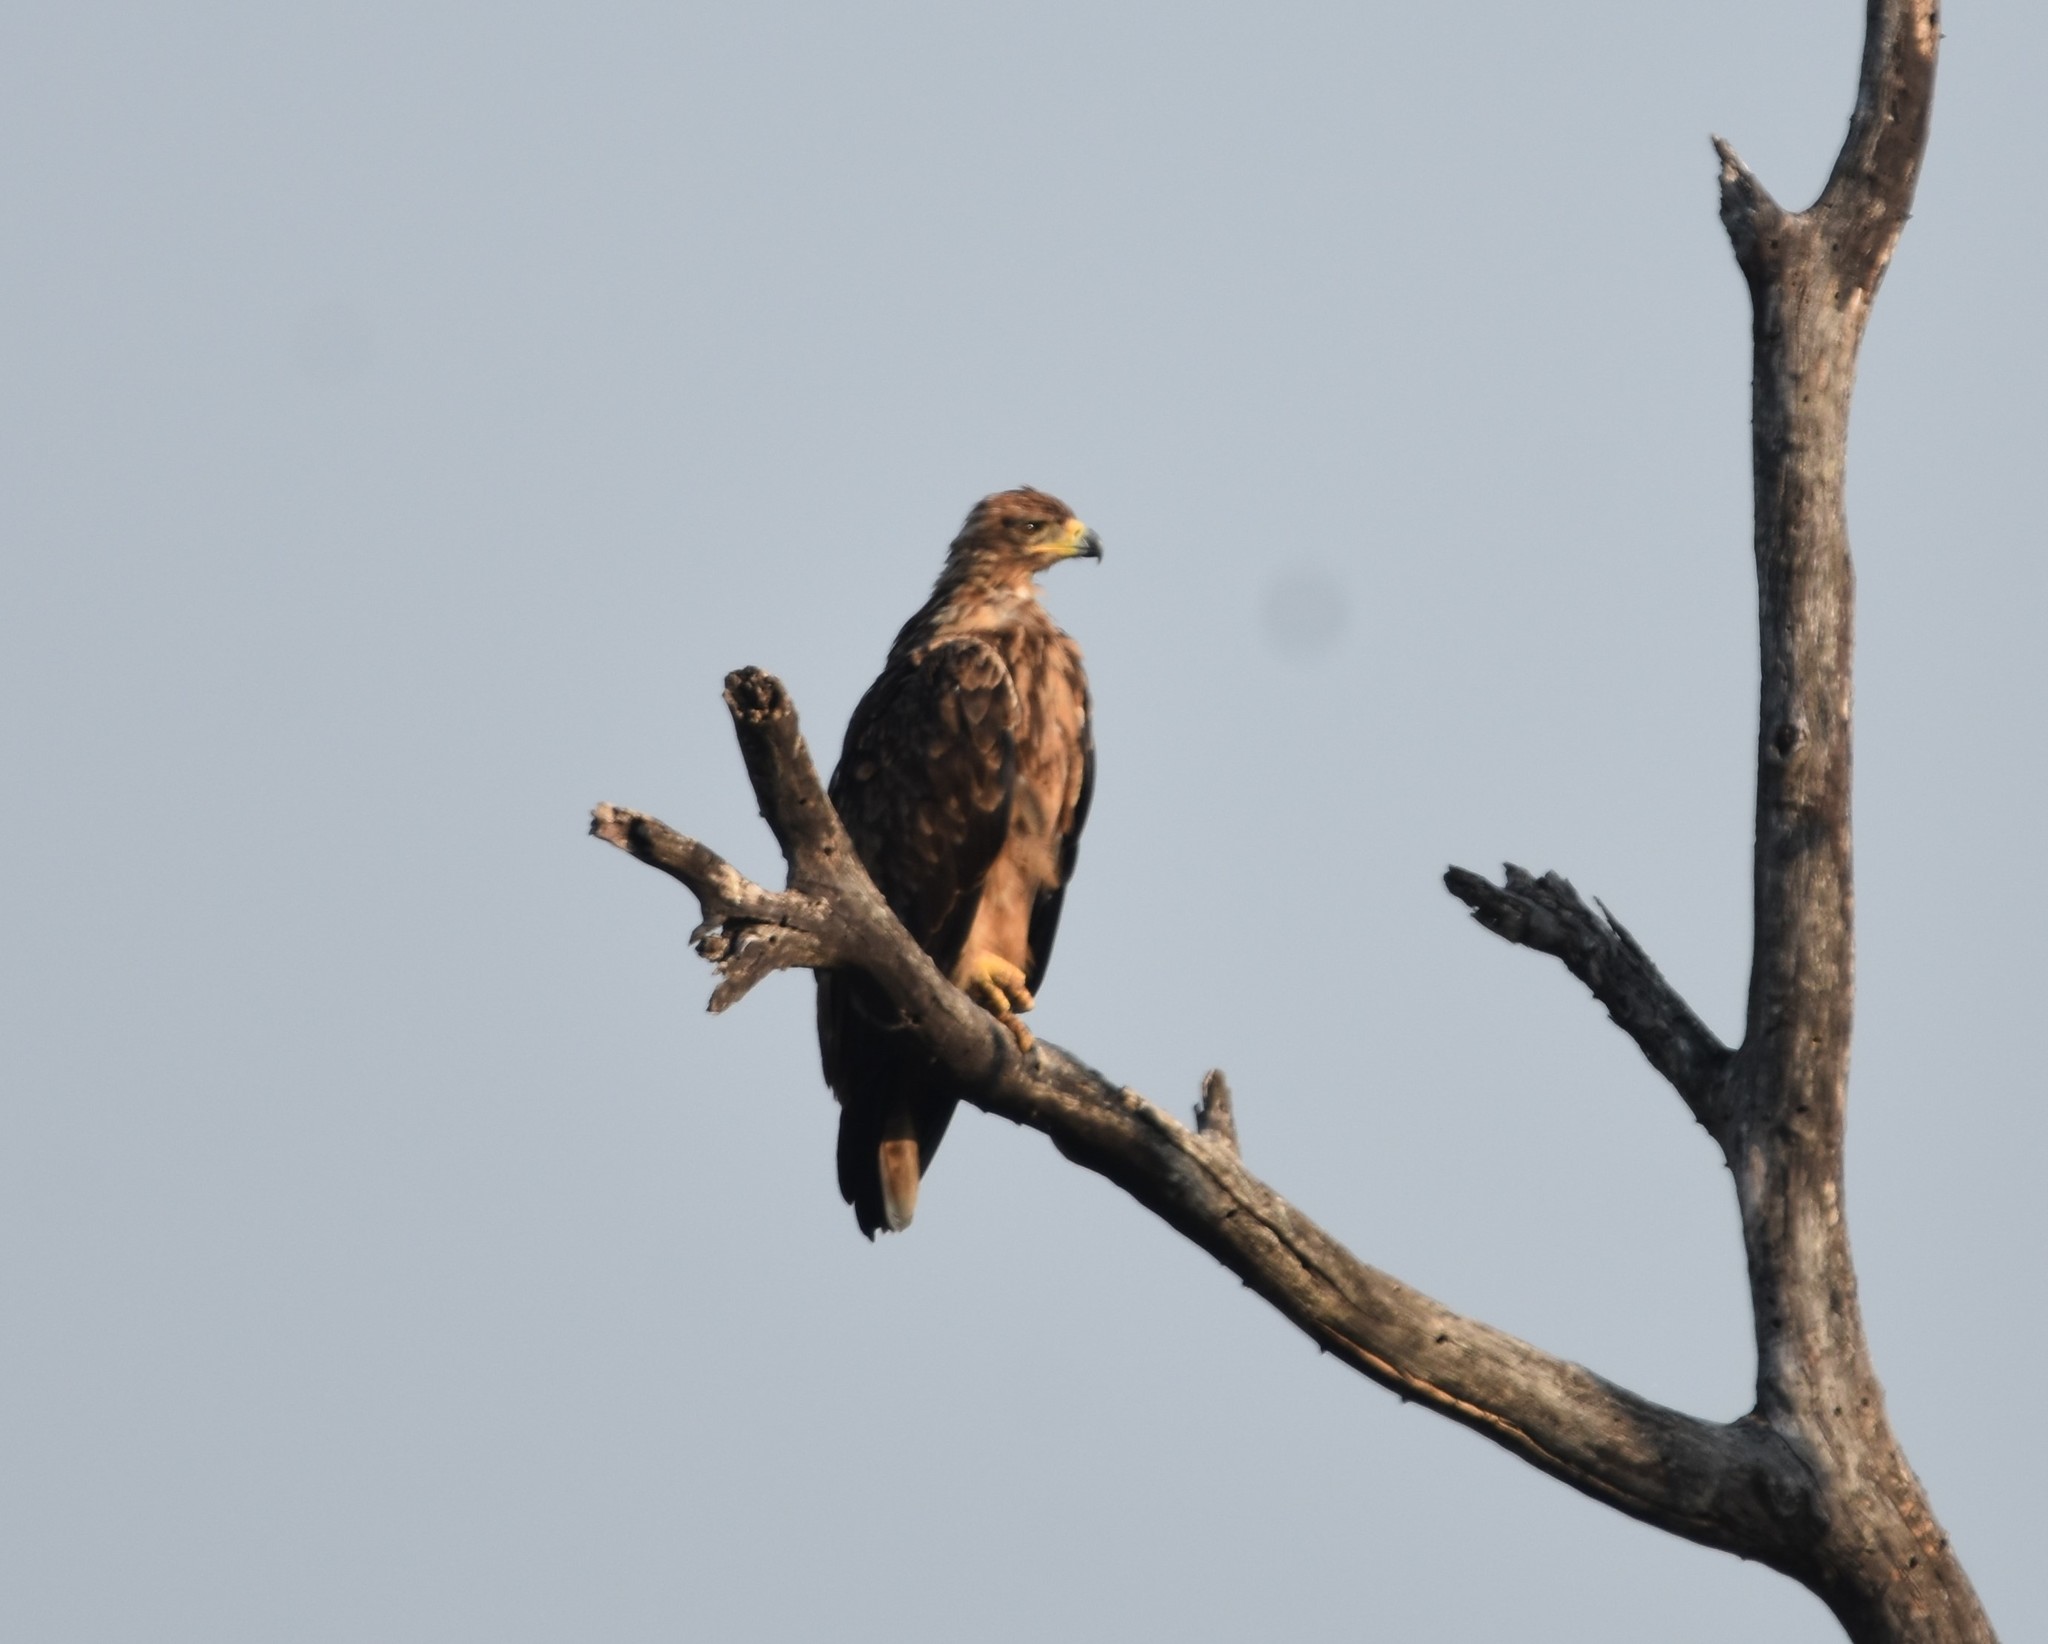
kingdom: Animalia
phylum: Chordata
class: Aves
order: Accipitriformes
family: Accipitridae
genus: Aquila
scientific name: Aquila rapax
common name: Tawny eagle
